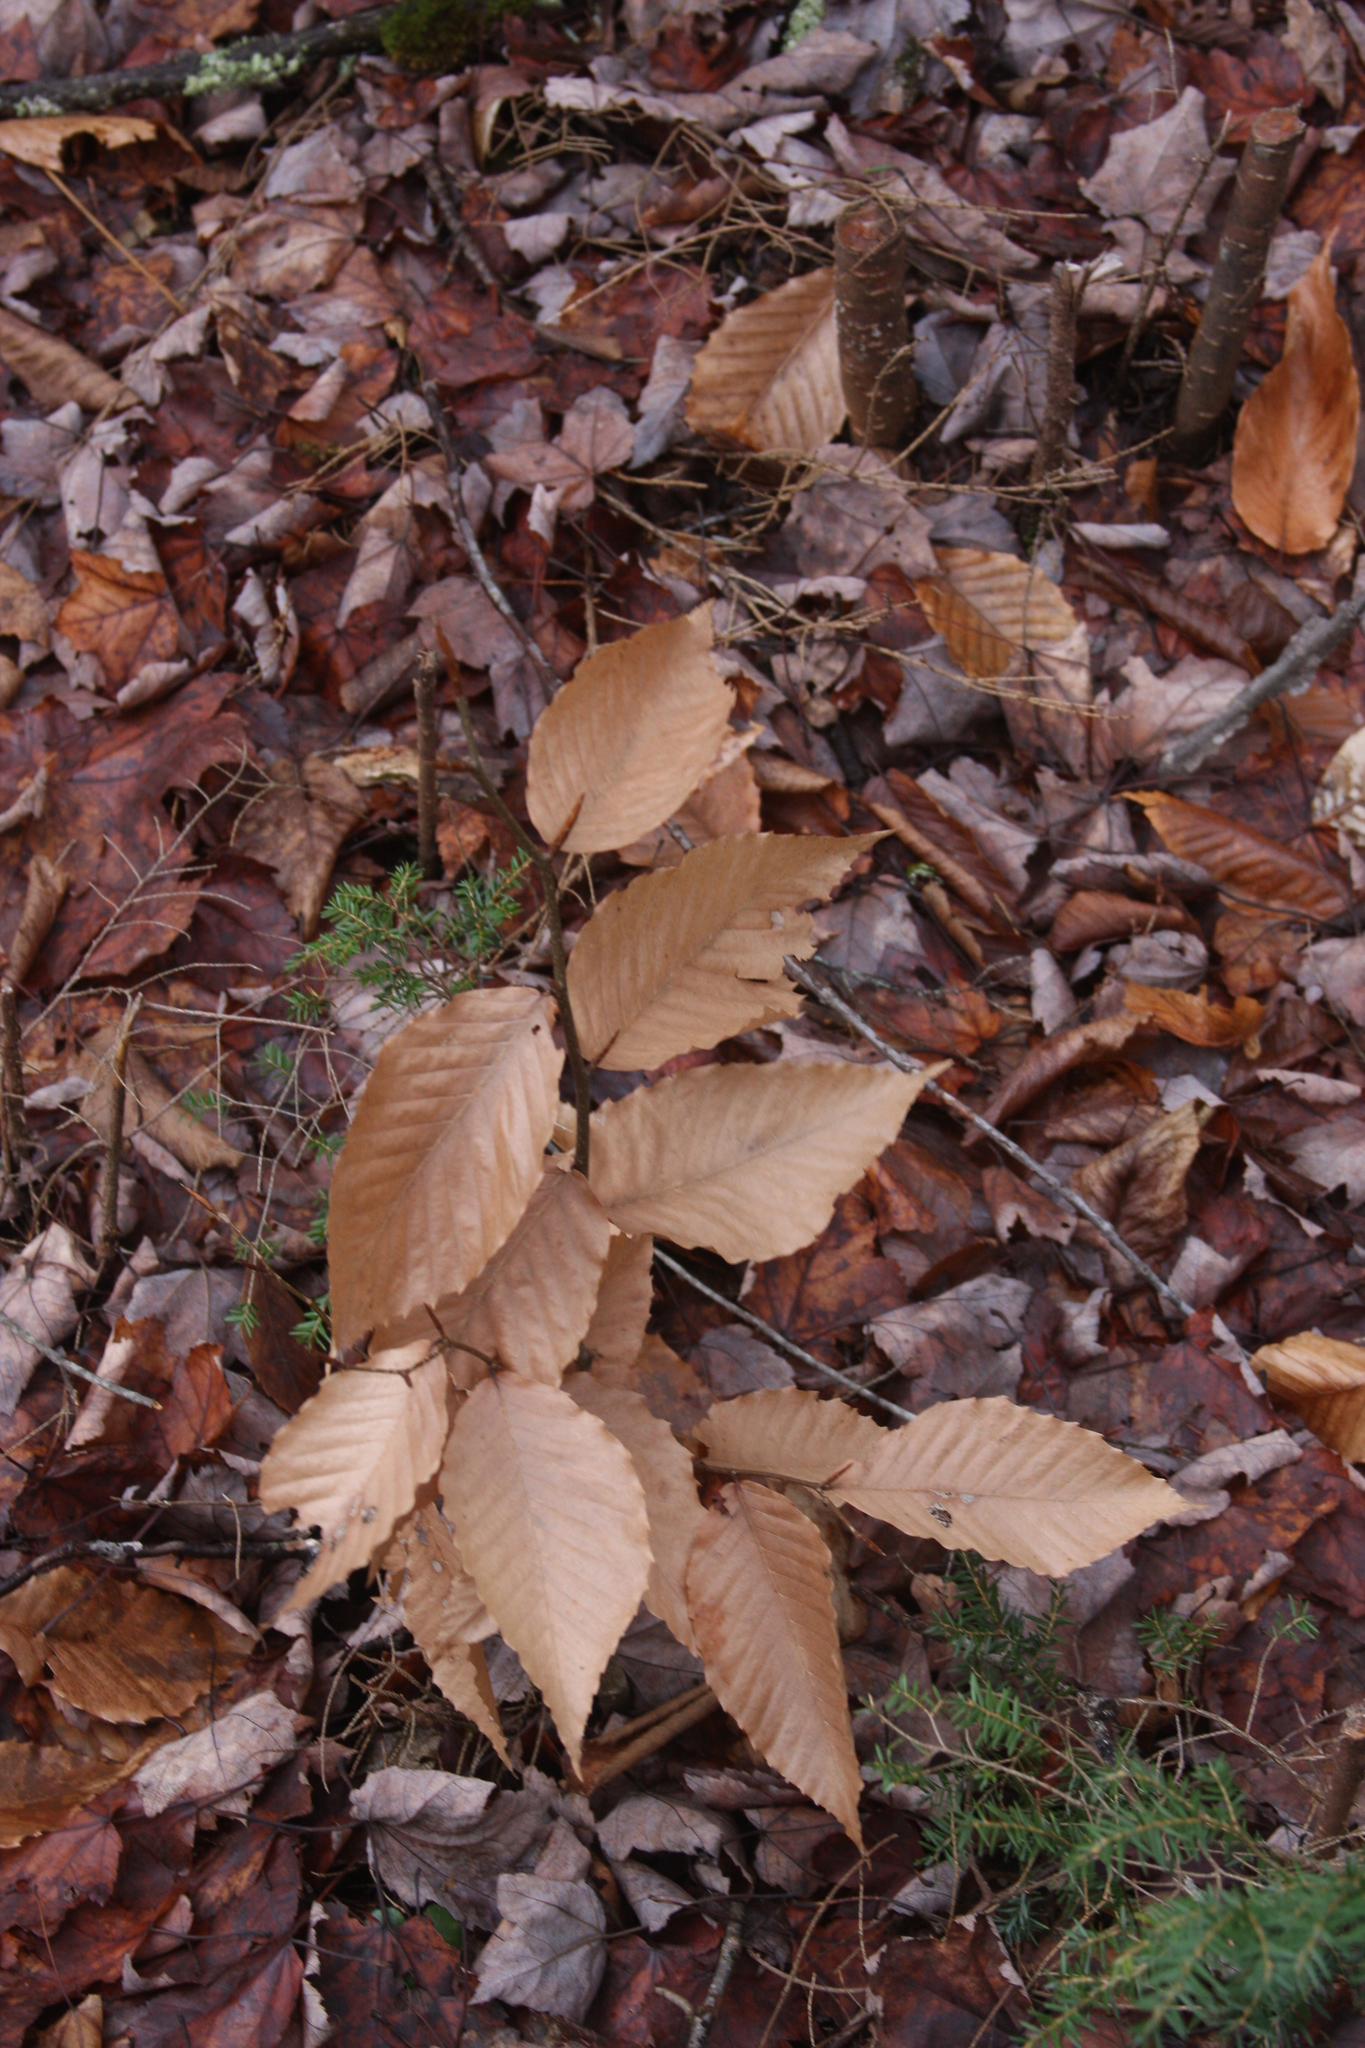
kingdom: Plantae
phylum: Tracheophyta
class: Magnoliopsida
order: Fagales
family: Fagaceae
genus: Fagus
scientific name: Fagus grandifolia
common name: American beech
